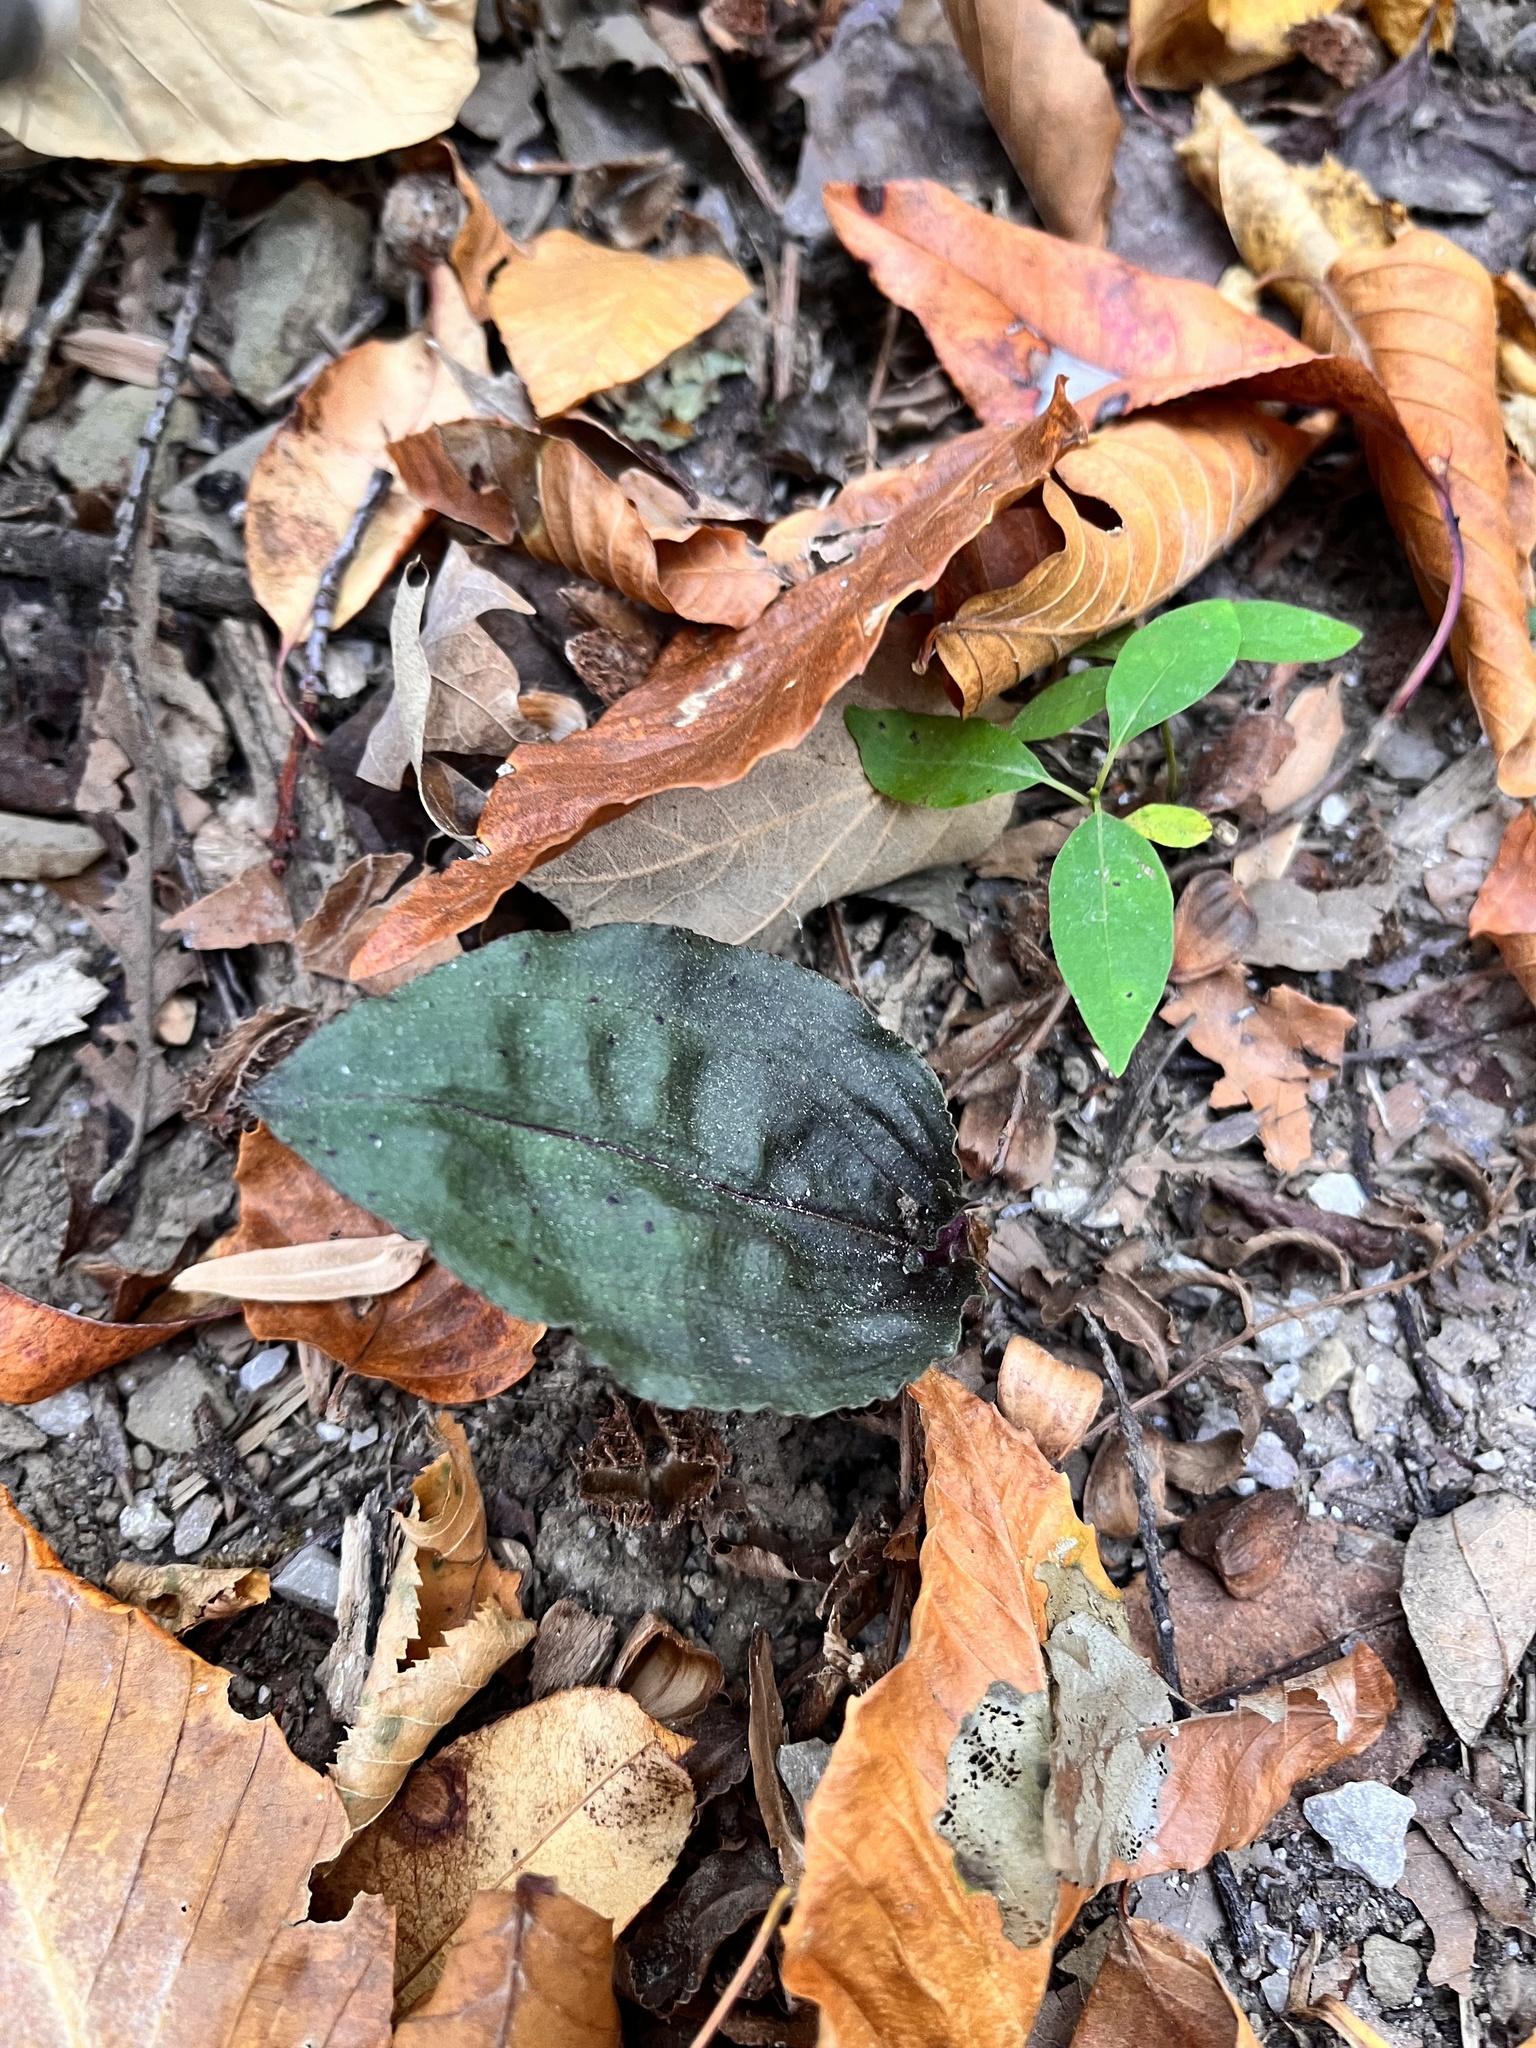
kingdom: Plantae
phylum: Tracheophyta
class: Liliopsida
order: Asparagales
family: Orchidaceae
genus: Tipularia
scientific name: Tipularia discolor
